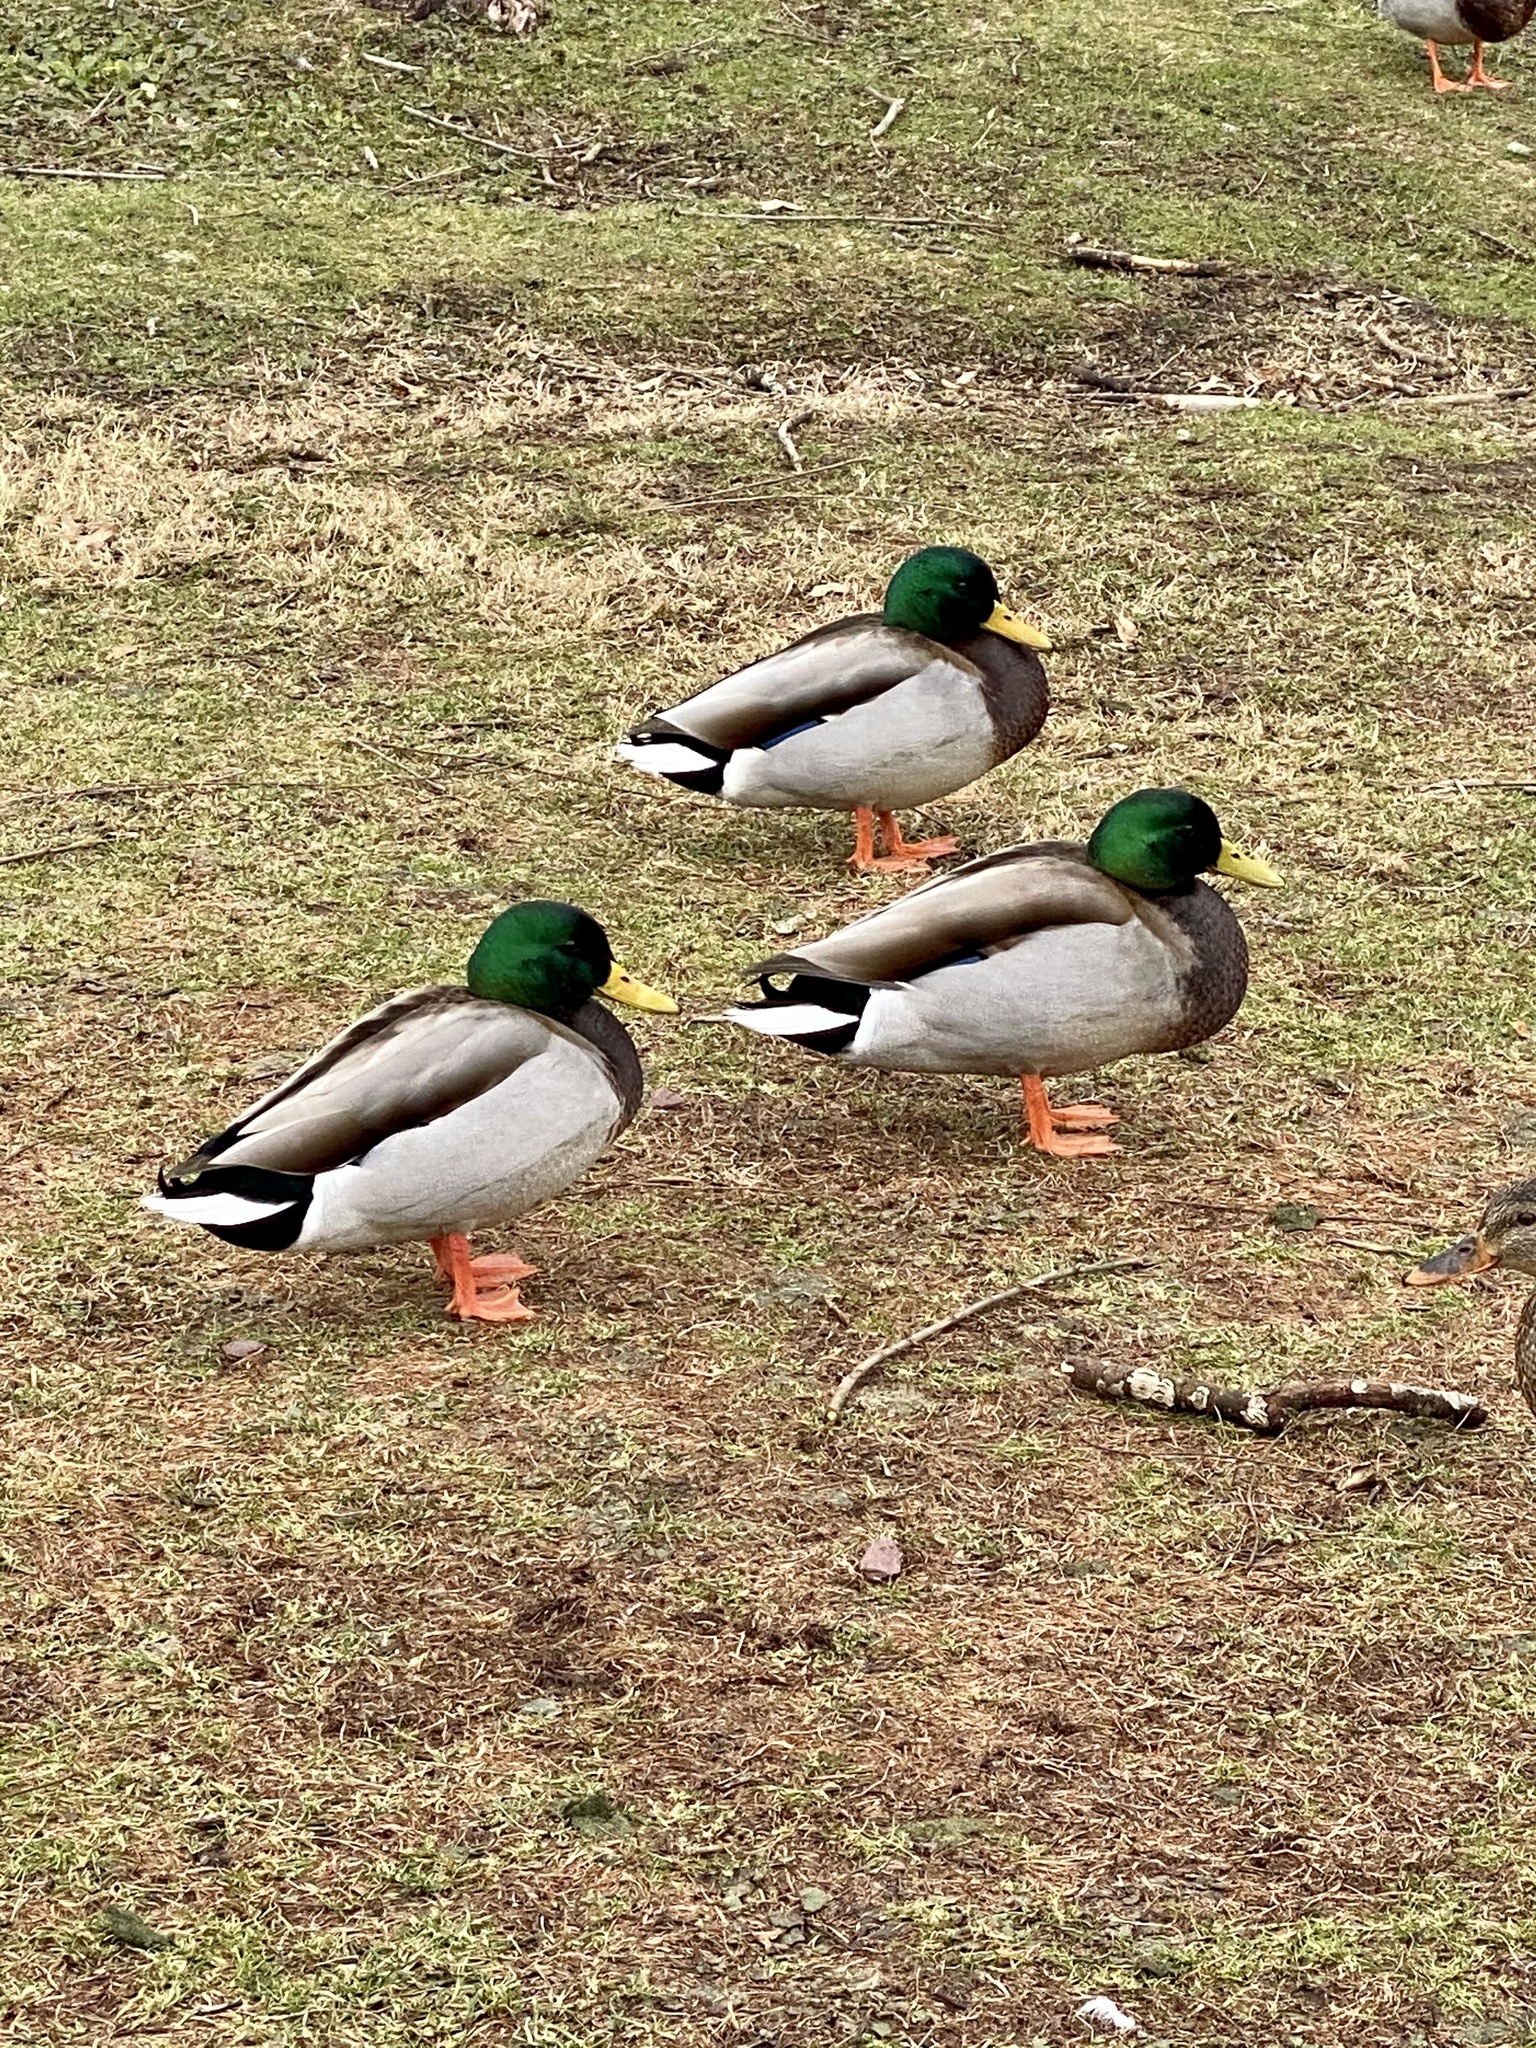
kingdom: Animalia
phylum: Chordata
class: Aves
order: Anseriformes
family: Anatidae
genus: Anas
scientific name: Anas platyrhynchos
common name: Mallard
